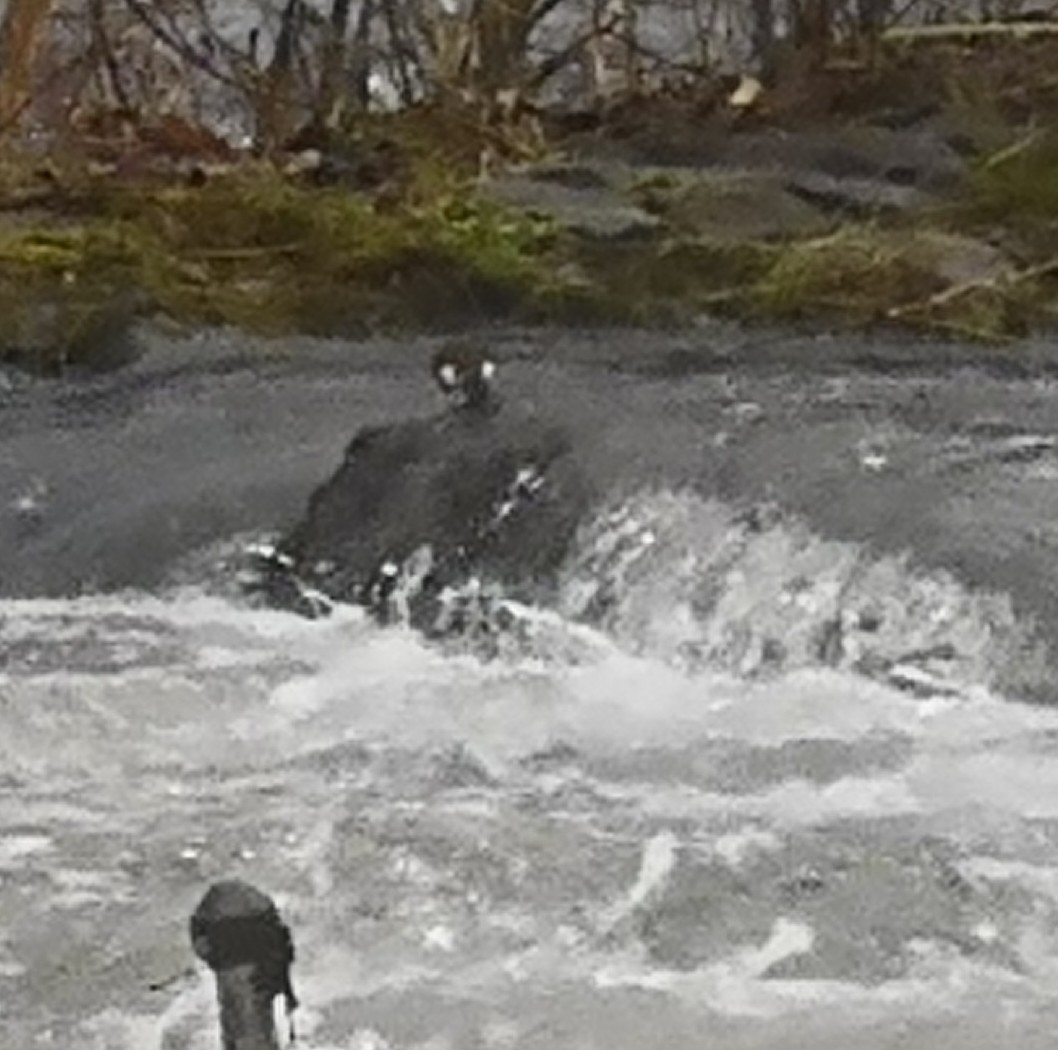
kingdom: Animalia
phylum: Chordata
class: Aves
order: Passeriformes
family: Cinclidae
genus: Cinclus
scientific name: Cinclus cinclus
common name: White-throated dipper
